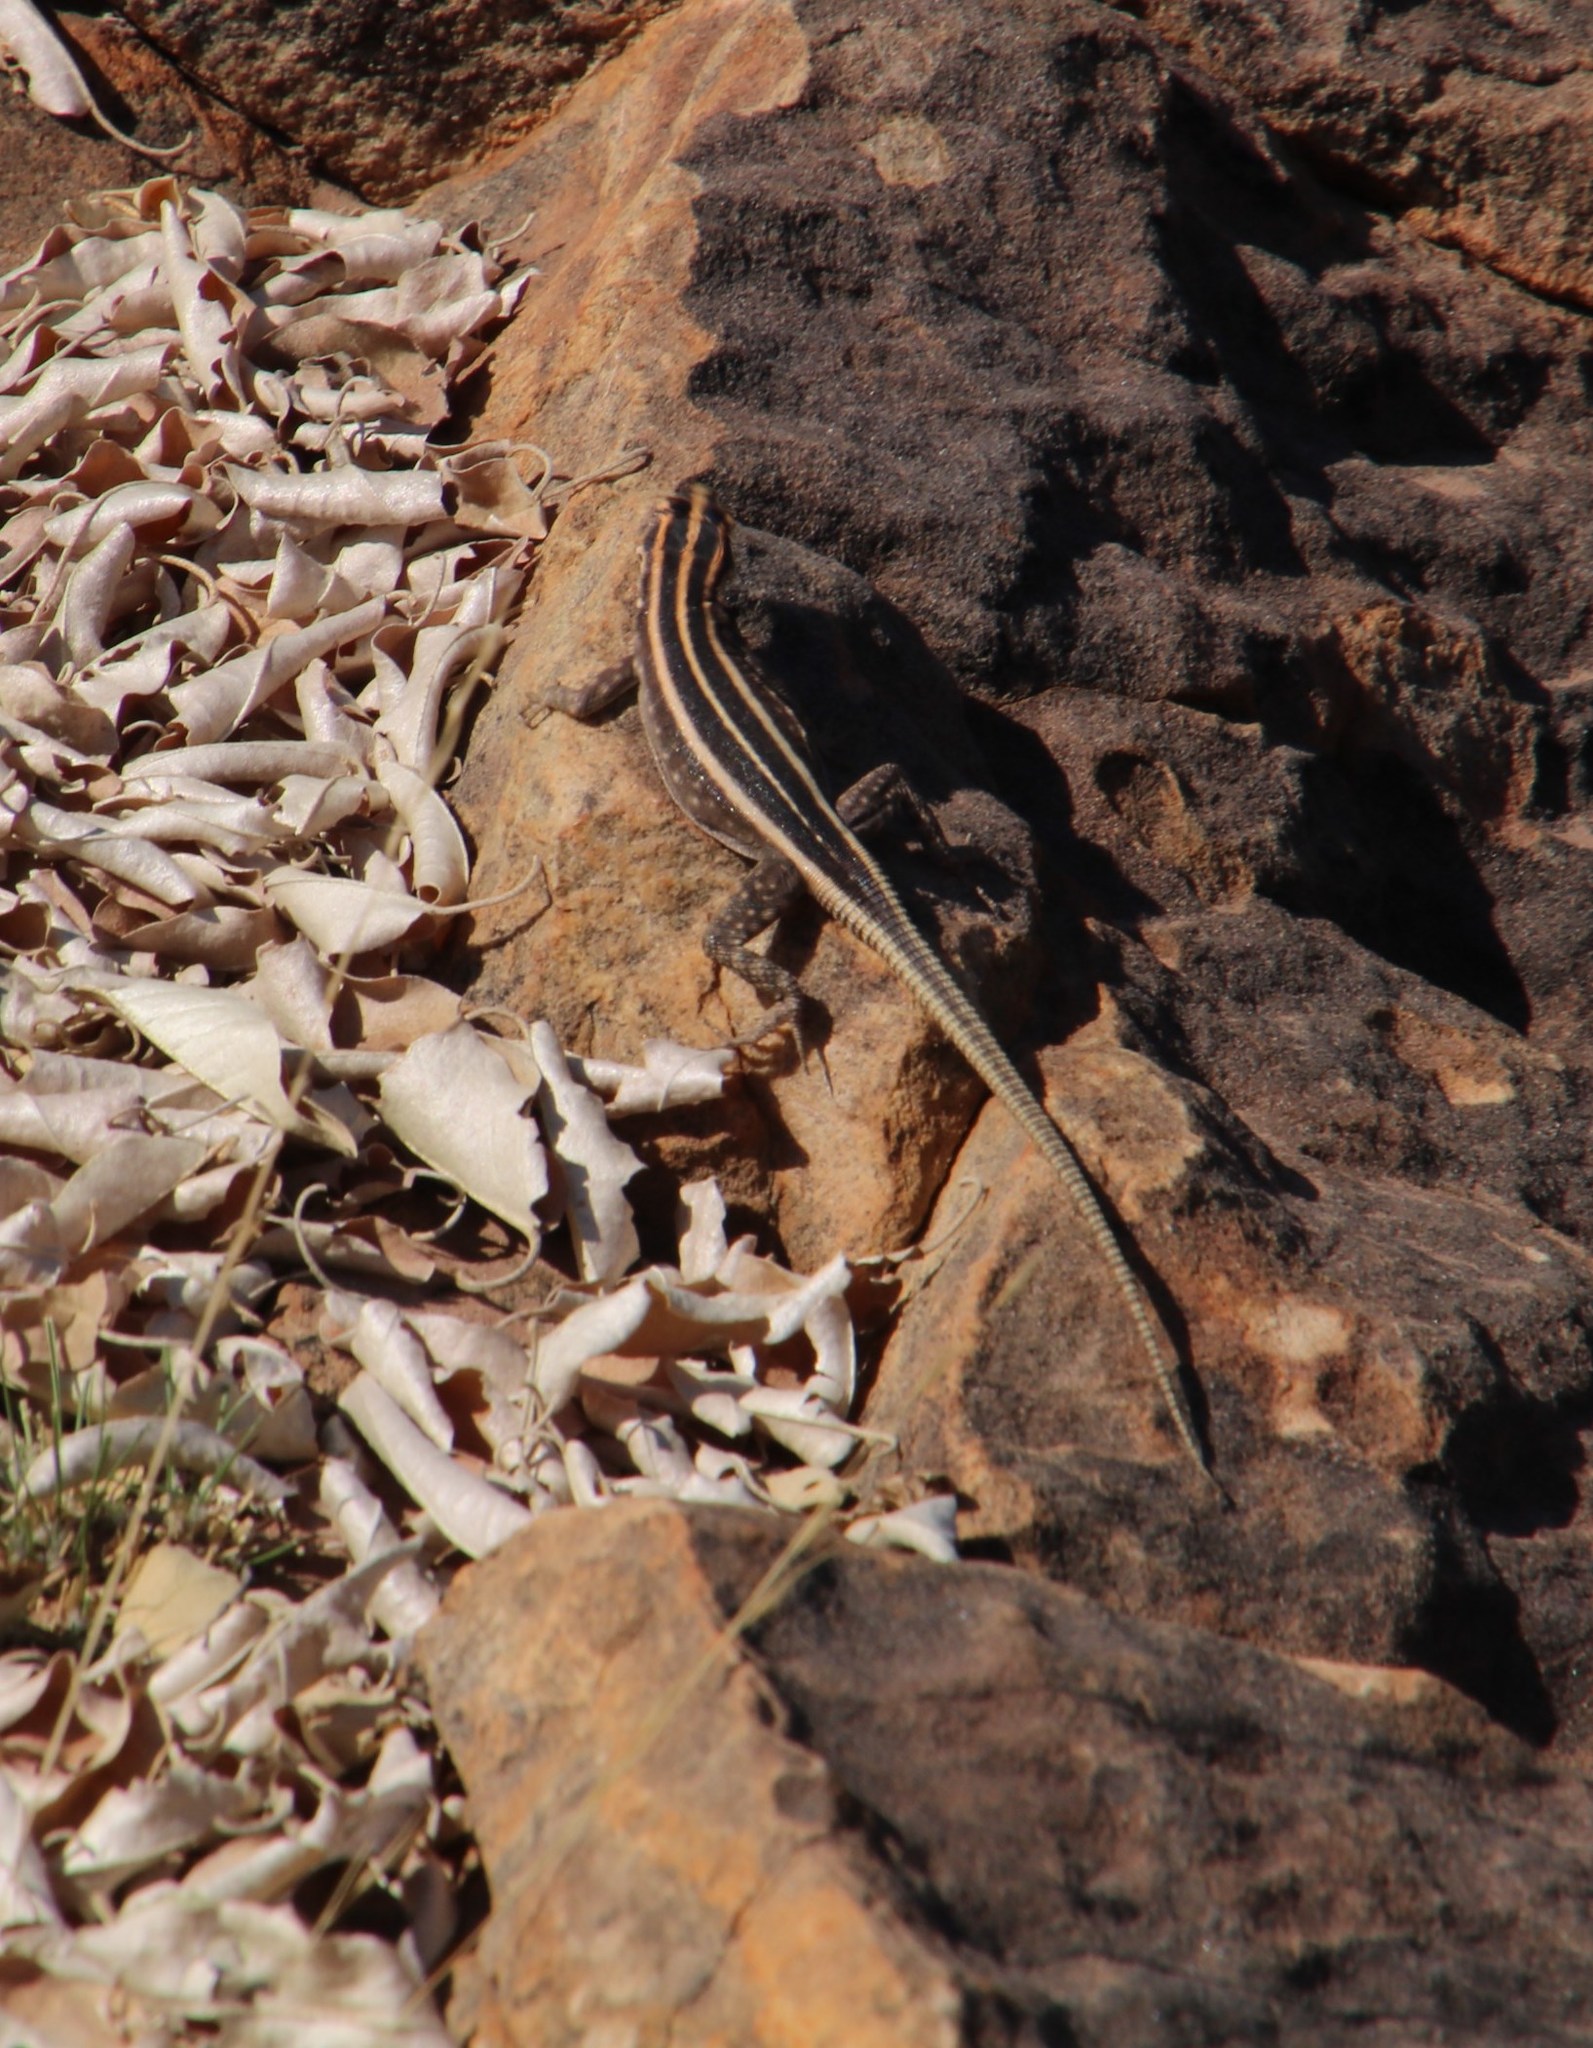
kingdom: Animalia
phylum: Chordata
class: Squamata
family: Cordylidae
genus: Platysaurus
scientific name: Platysaurus intermedius
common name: Common flat lizard
